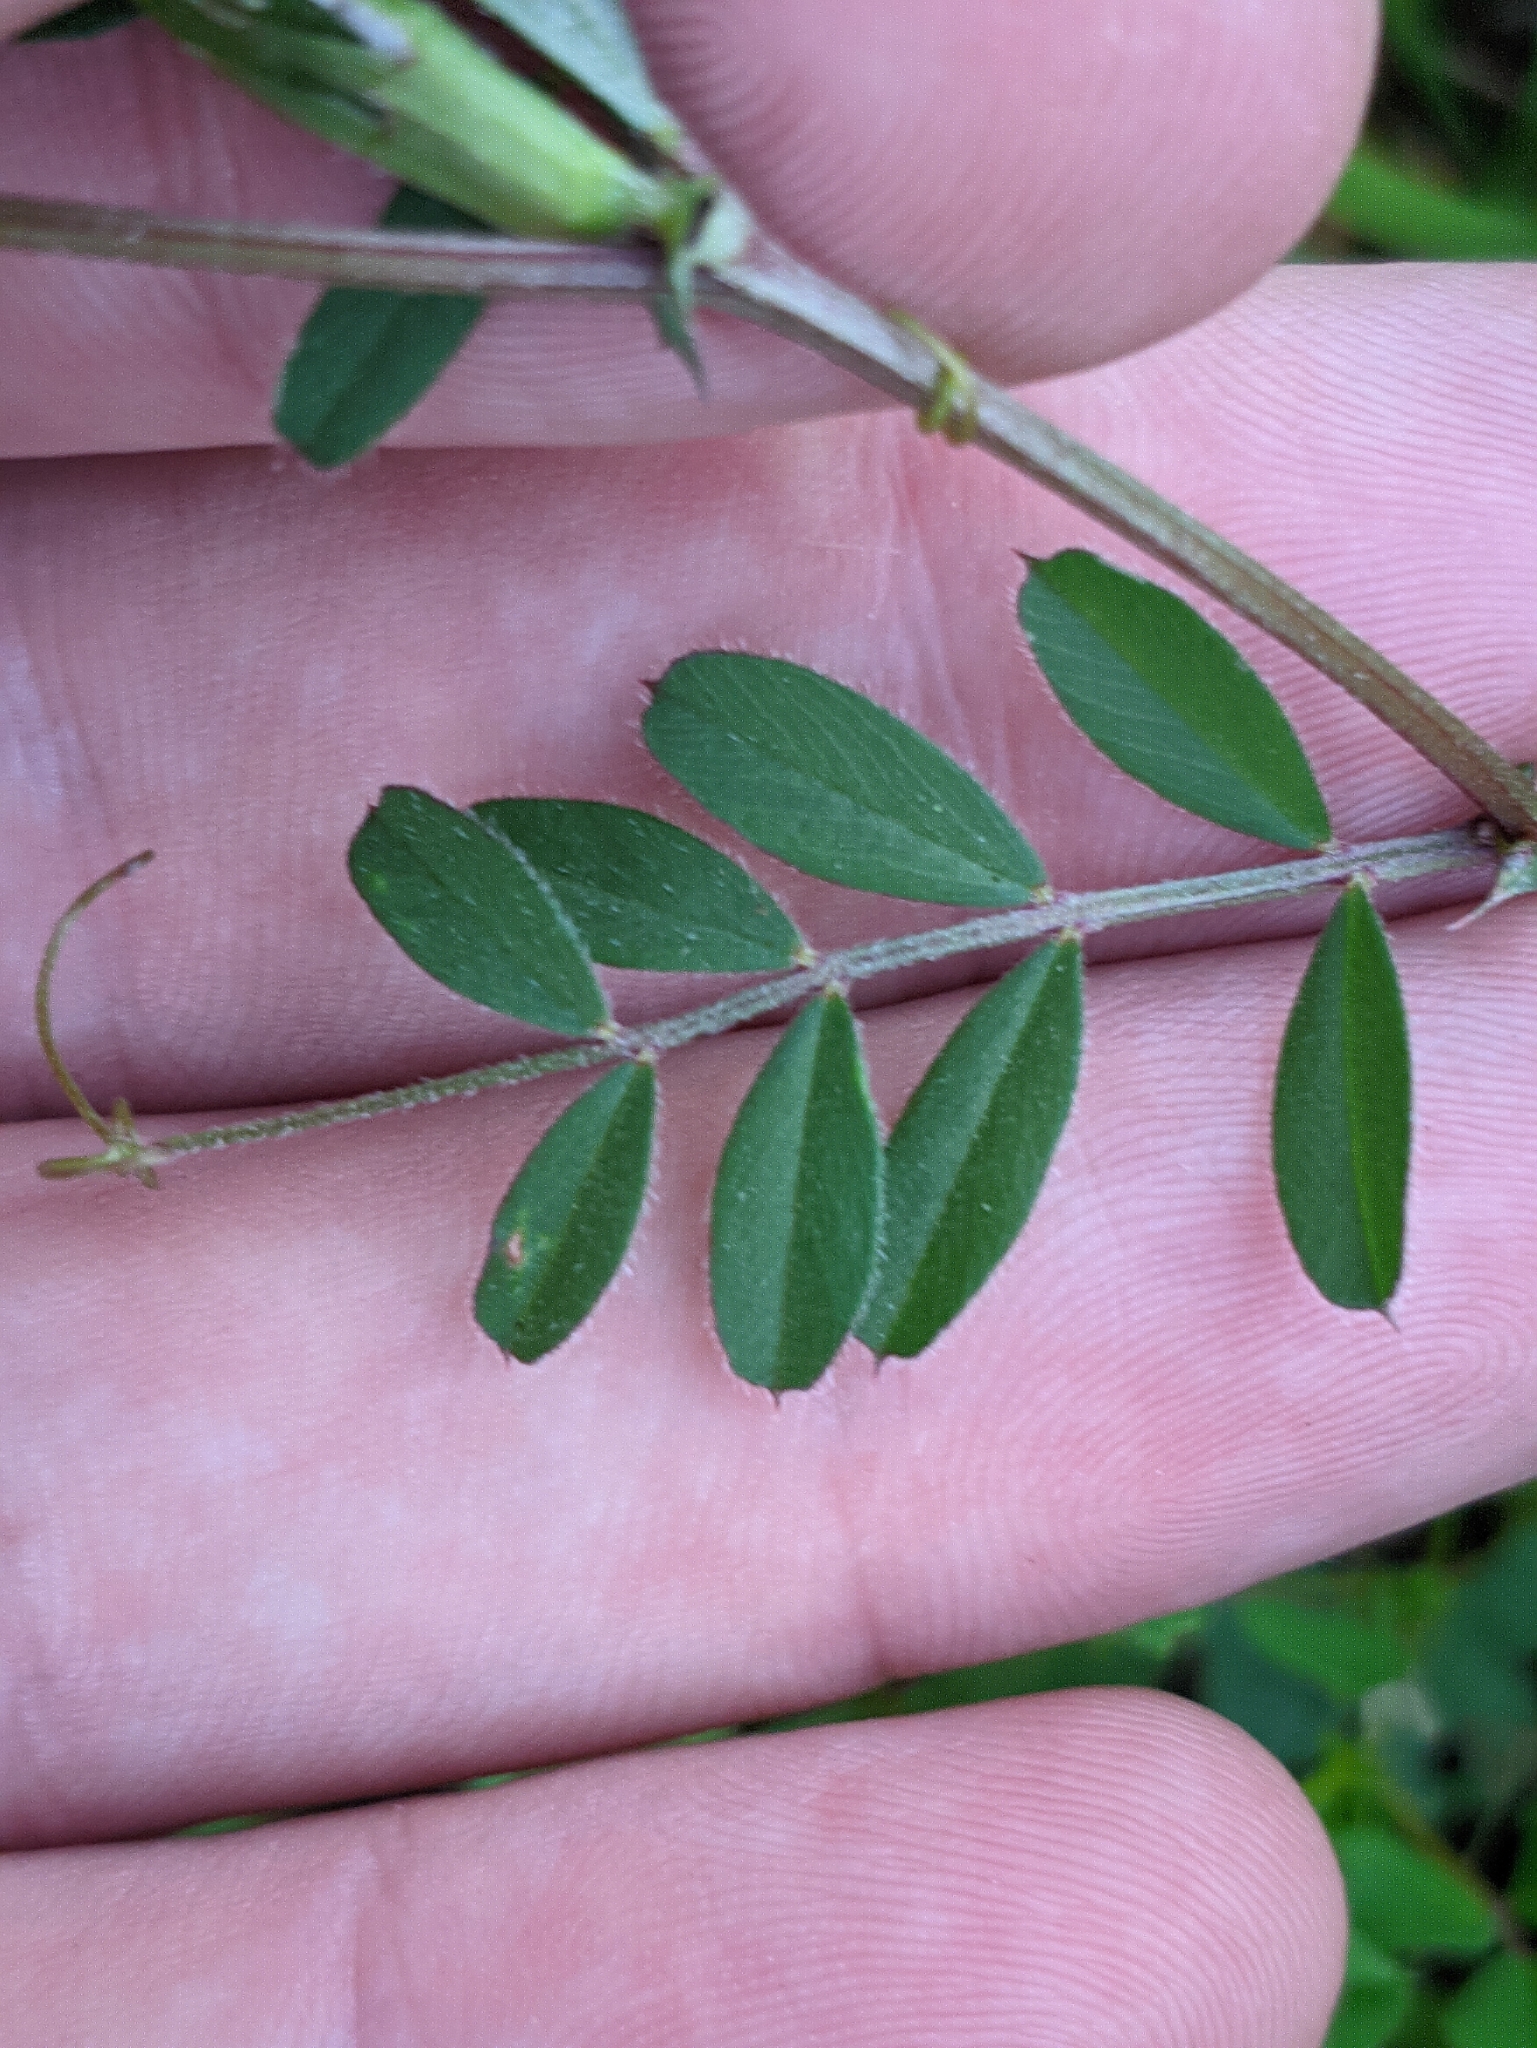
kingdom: Plantae
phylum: Tracheophyta
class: Magnoliopsida
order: Fabales
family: Fabaceae
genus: Vicia
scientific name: Vicia sativa
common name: Garden vetch
